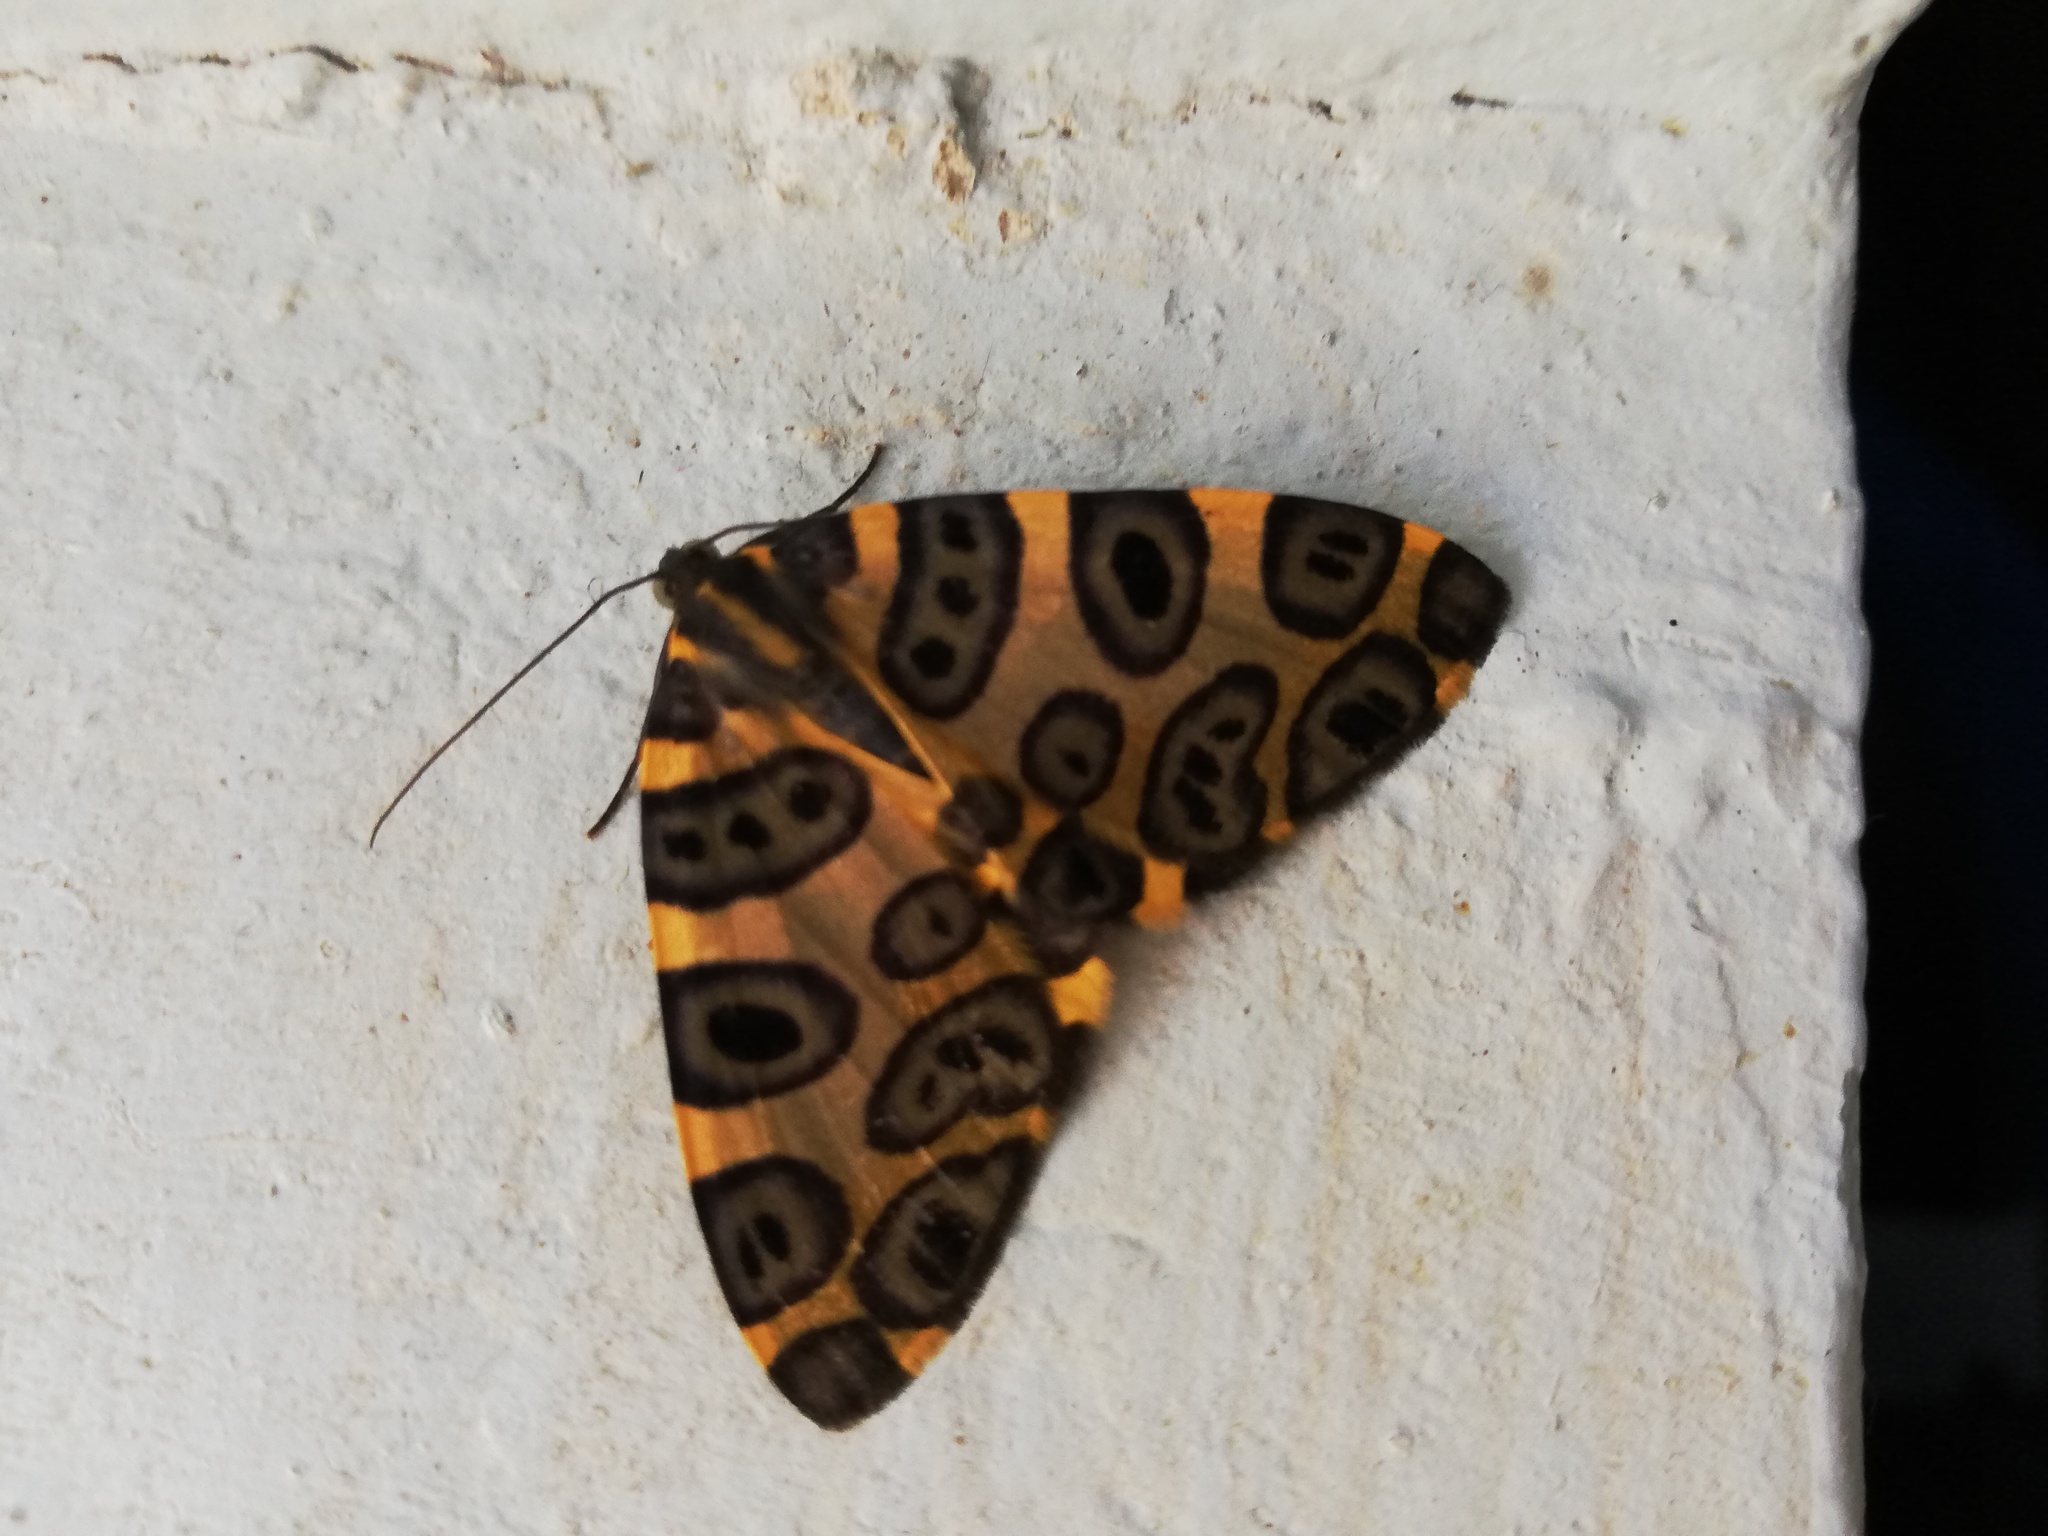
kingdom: Animalia
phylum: Arthropoda
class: Insecta
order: Lepidoptera
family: Geometridae
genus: Pantherodes
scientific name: Pantherodes pardalaria
